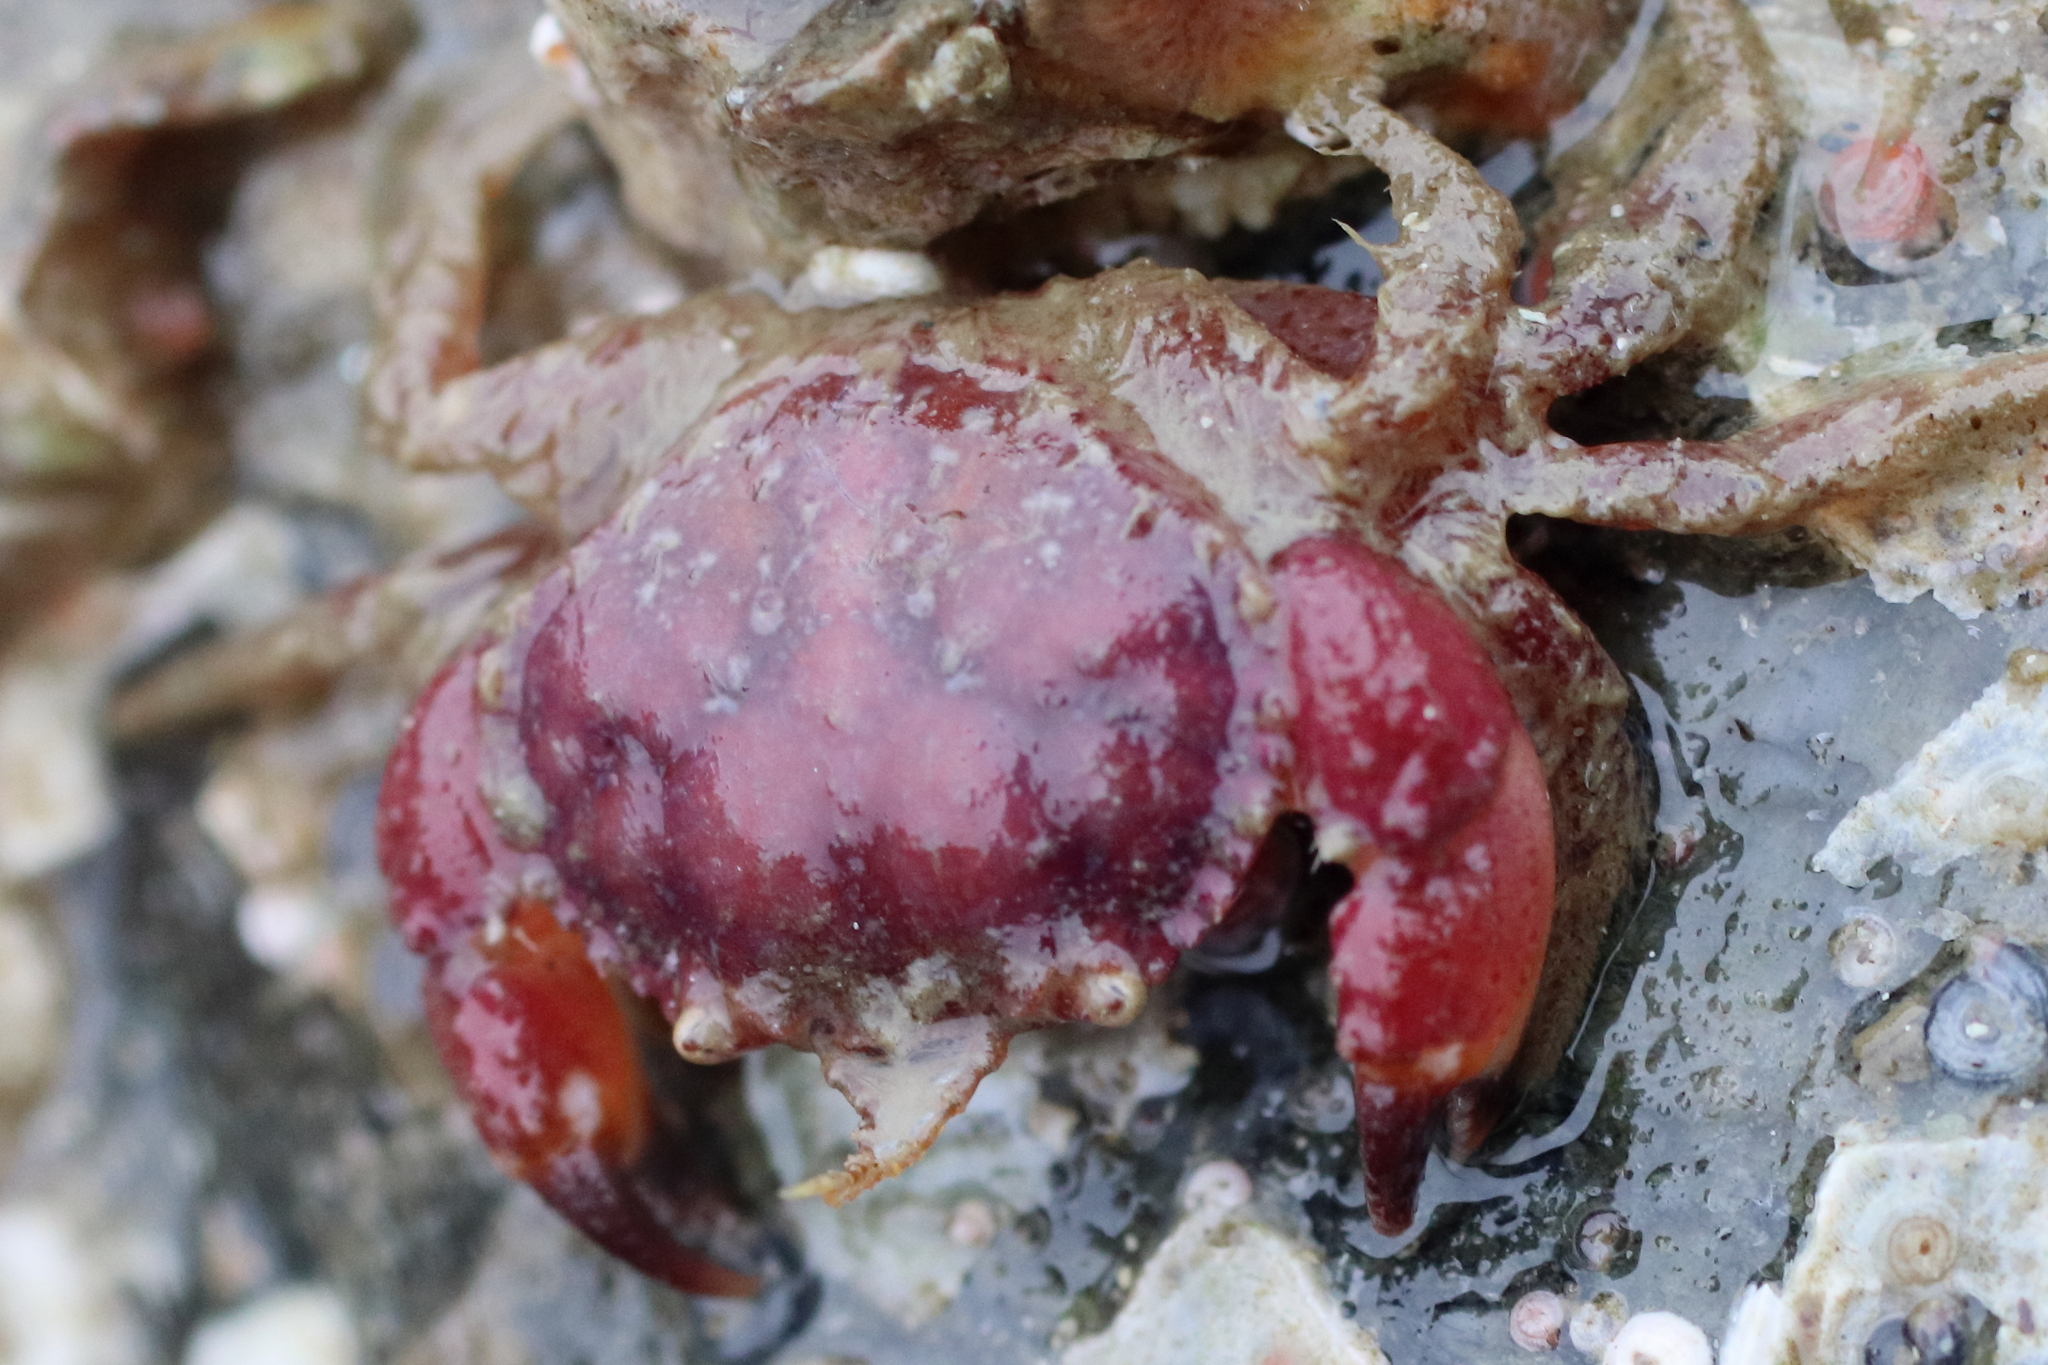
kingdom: Animalia
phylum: Arthropoda
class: Malacostraca
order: Decapoda
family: Cancridae
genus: Glebocarcinus
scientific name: Glebocarcinus oregonensis
